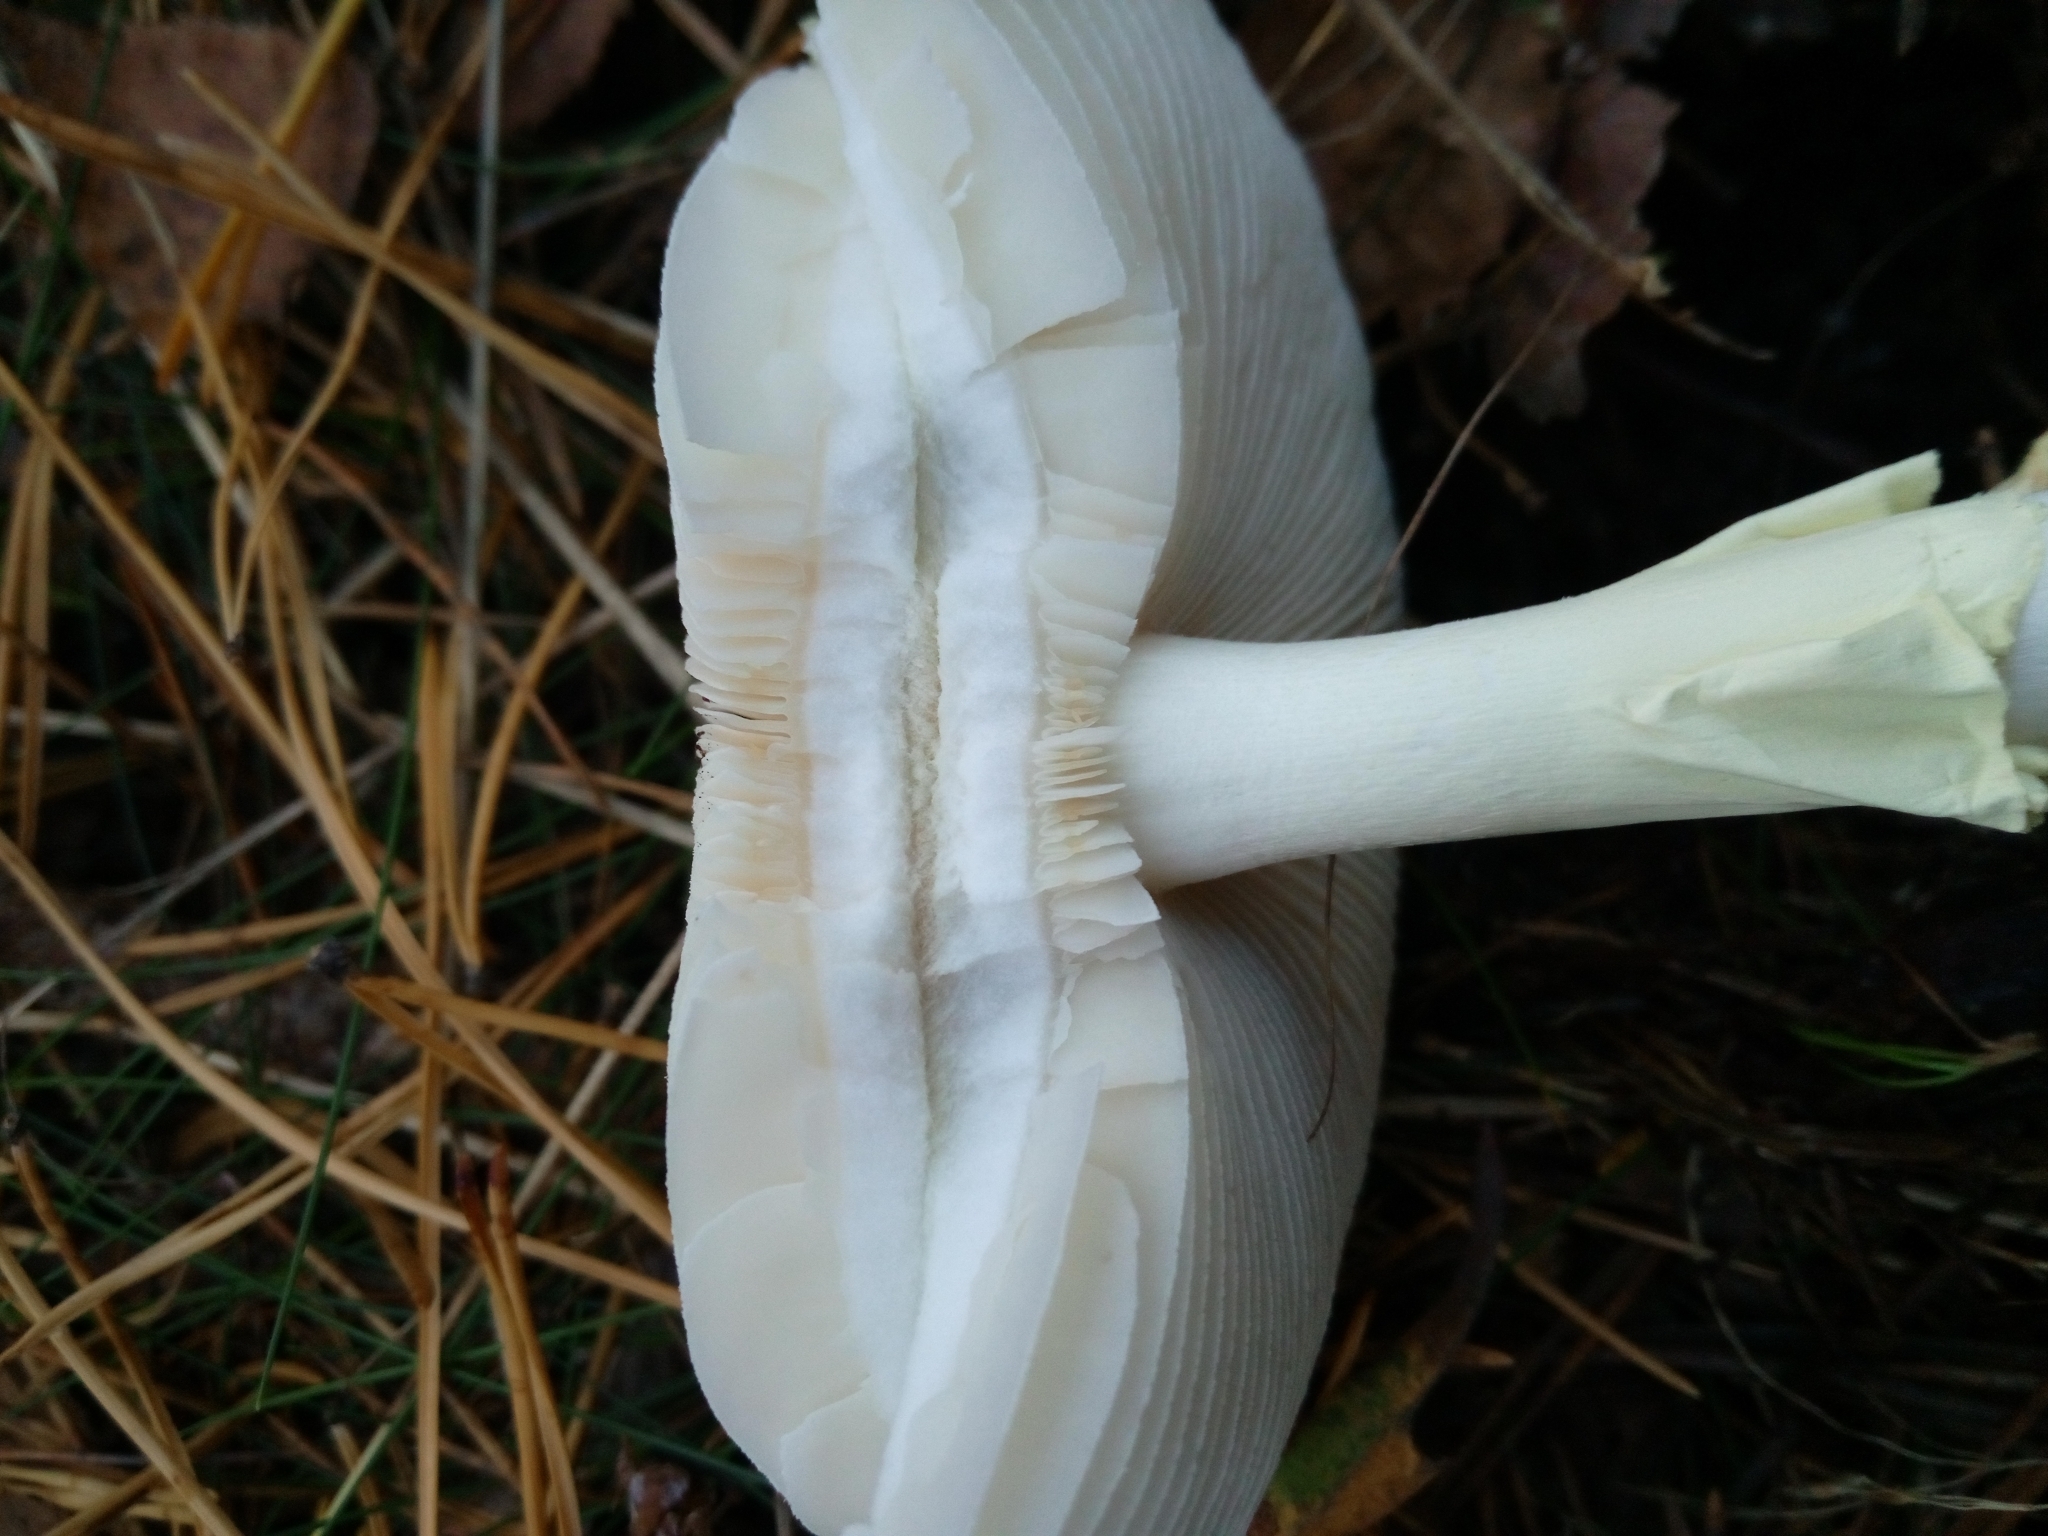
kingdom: Fungi
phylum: Basidiomycota
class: Agaricomycetes
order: Agaricales
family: Amanitaceae
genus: Amanita
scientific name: Amanita citrina
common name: False death-cap
